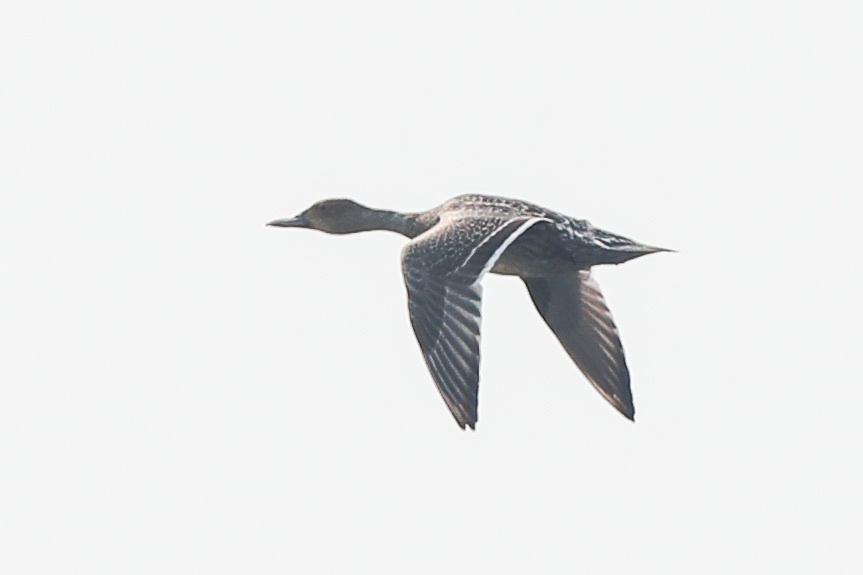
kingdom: Animalia
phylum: Chordata
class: Aves
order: Anseriformes
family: Anatidae
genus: Anas
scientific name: Anas acuta
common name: Northern pintail
